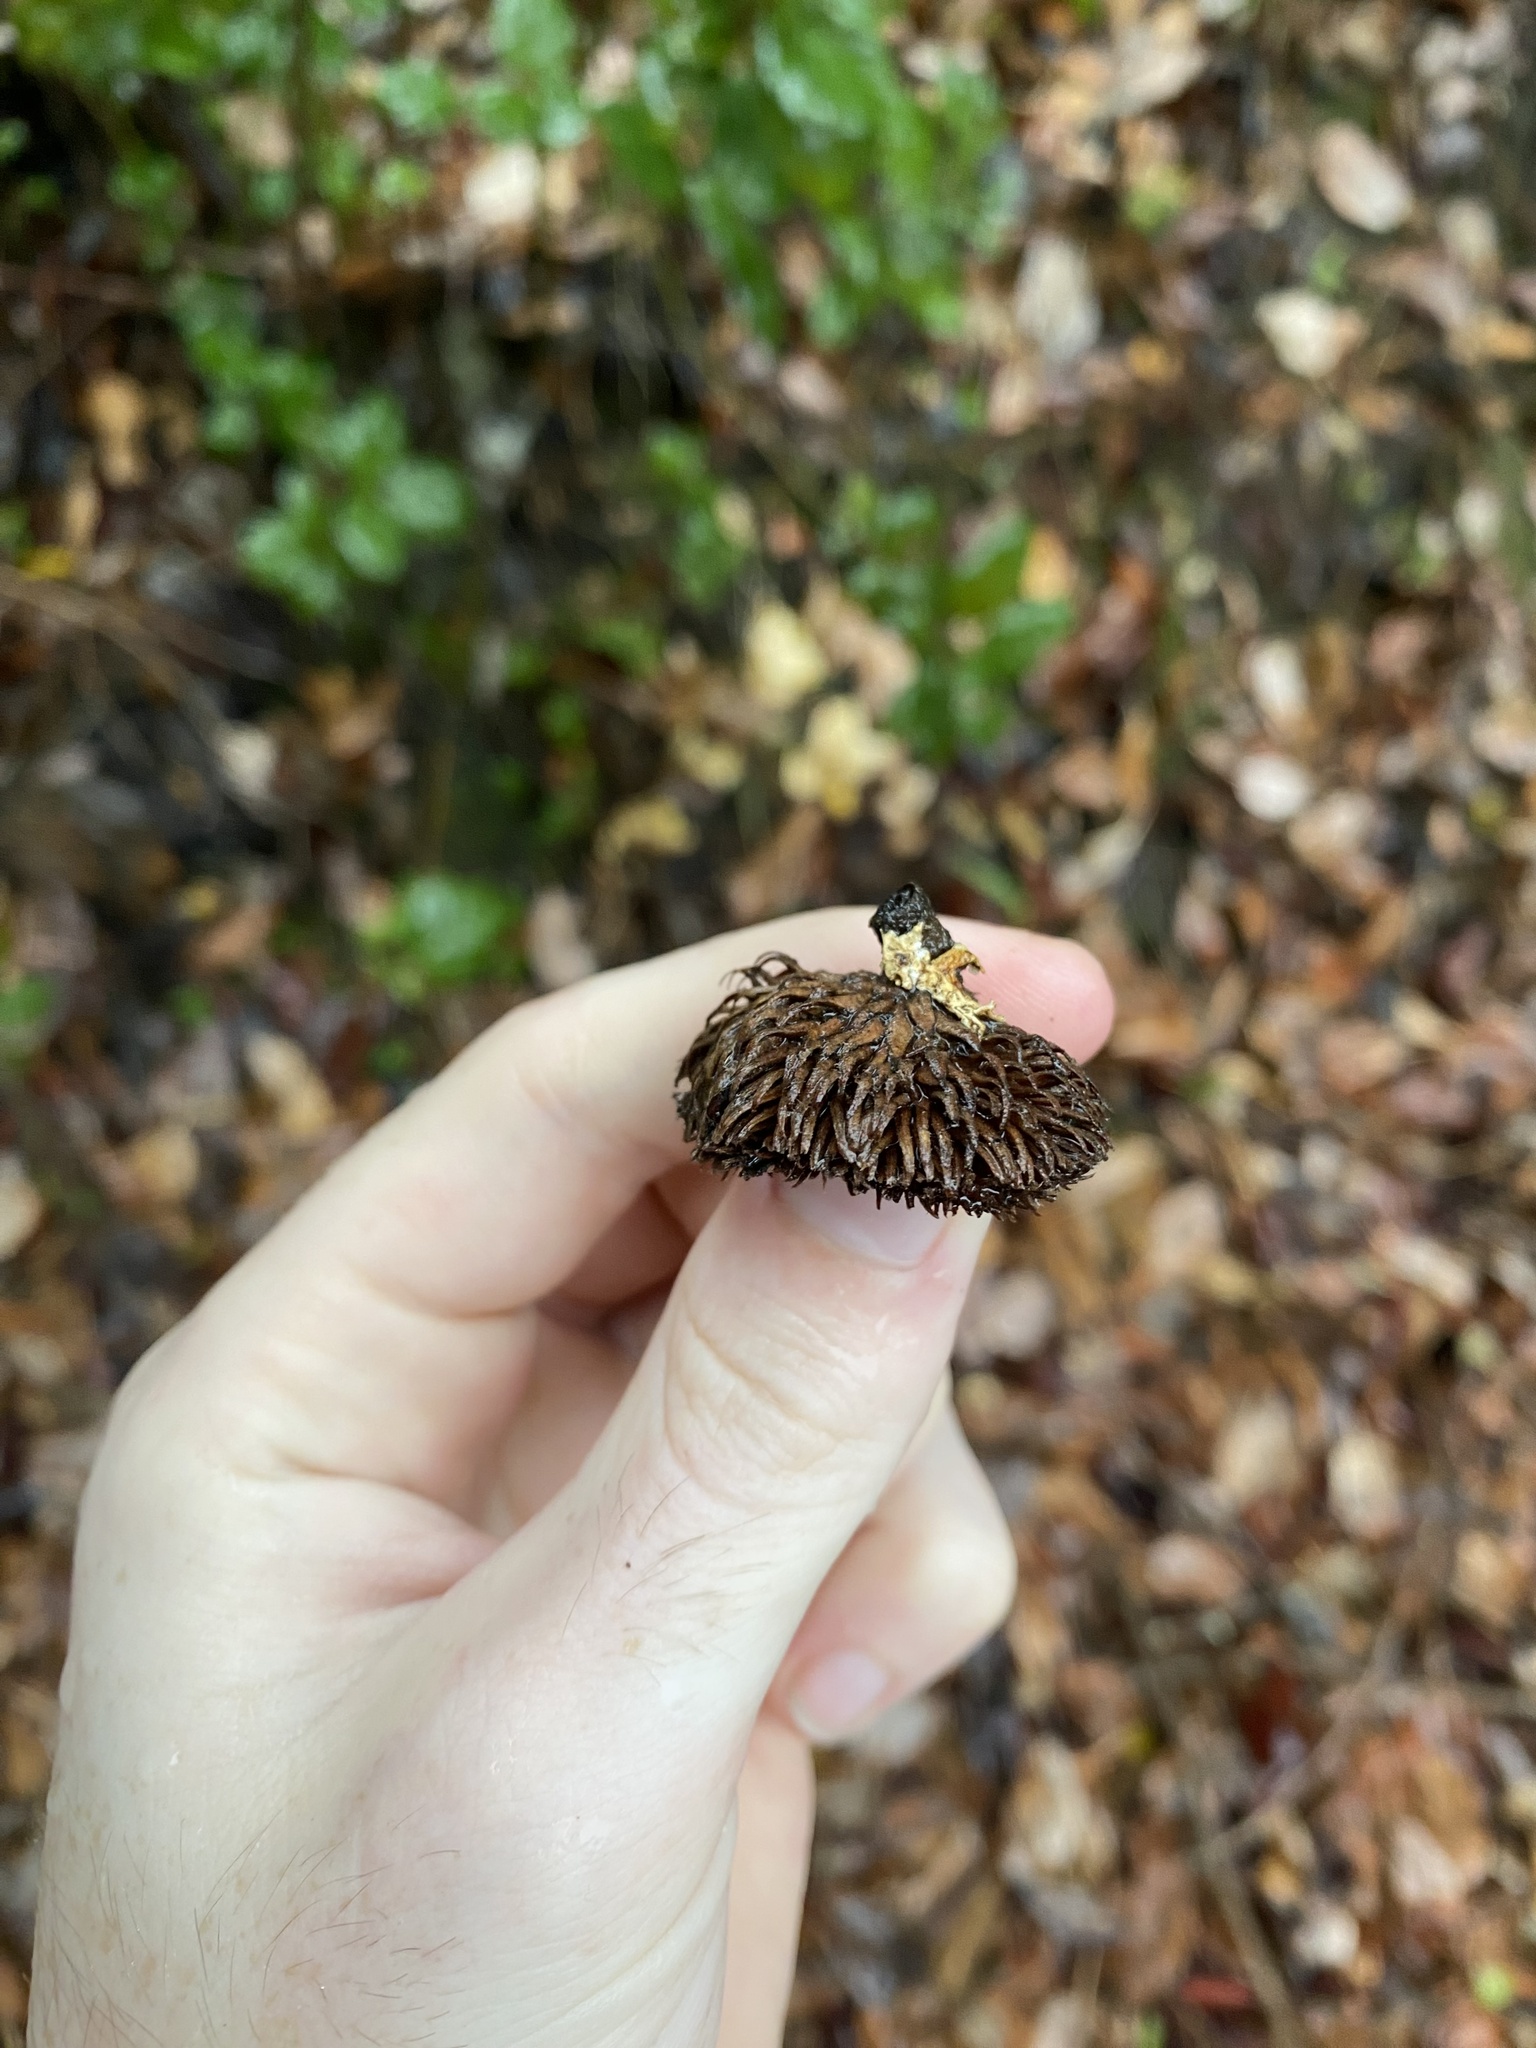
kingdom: Plantae
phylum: Tracheophyta
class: Magnoliopsida
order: Fagales
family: Fagaceae
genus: Notholithocarpus
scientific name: Notholithocarpus densiflorus
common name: Tan bark oak
